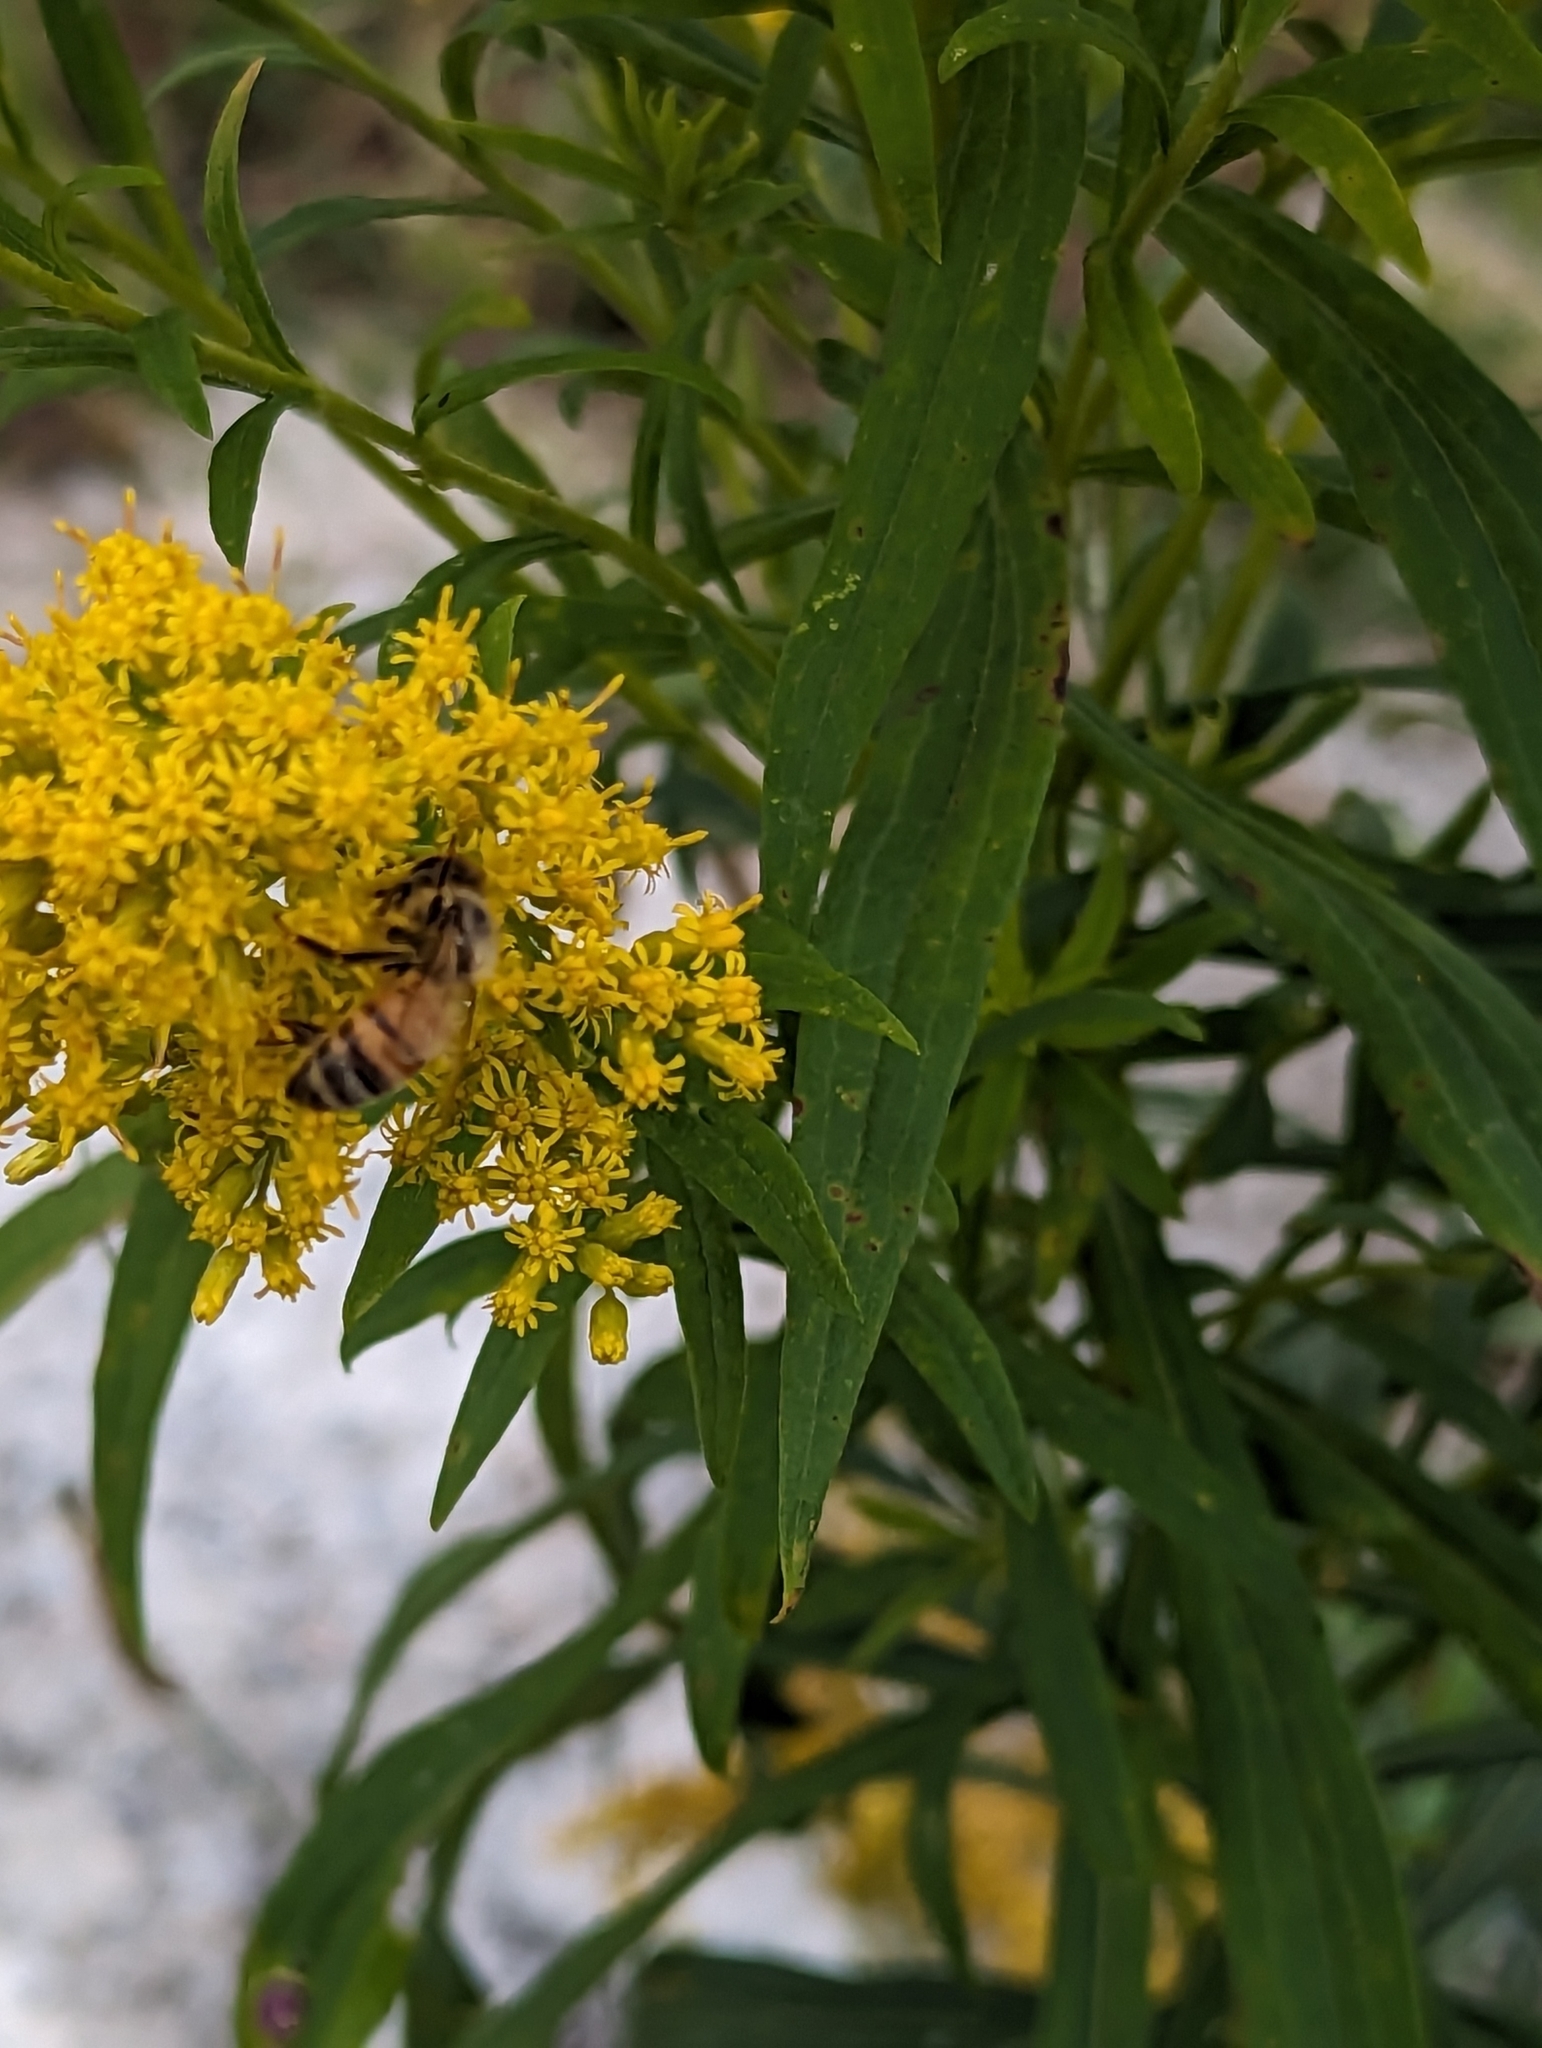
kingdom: Animalia
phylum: Arthropoda
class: Insecta
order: Hymenoptera
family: Apidae
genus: Apis
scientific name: Apis mellifera
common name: Honey bee
